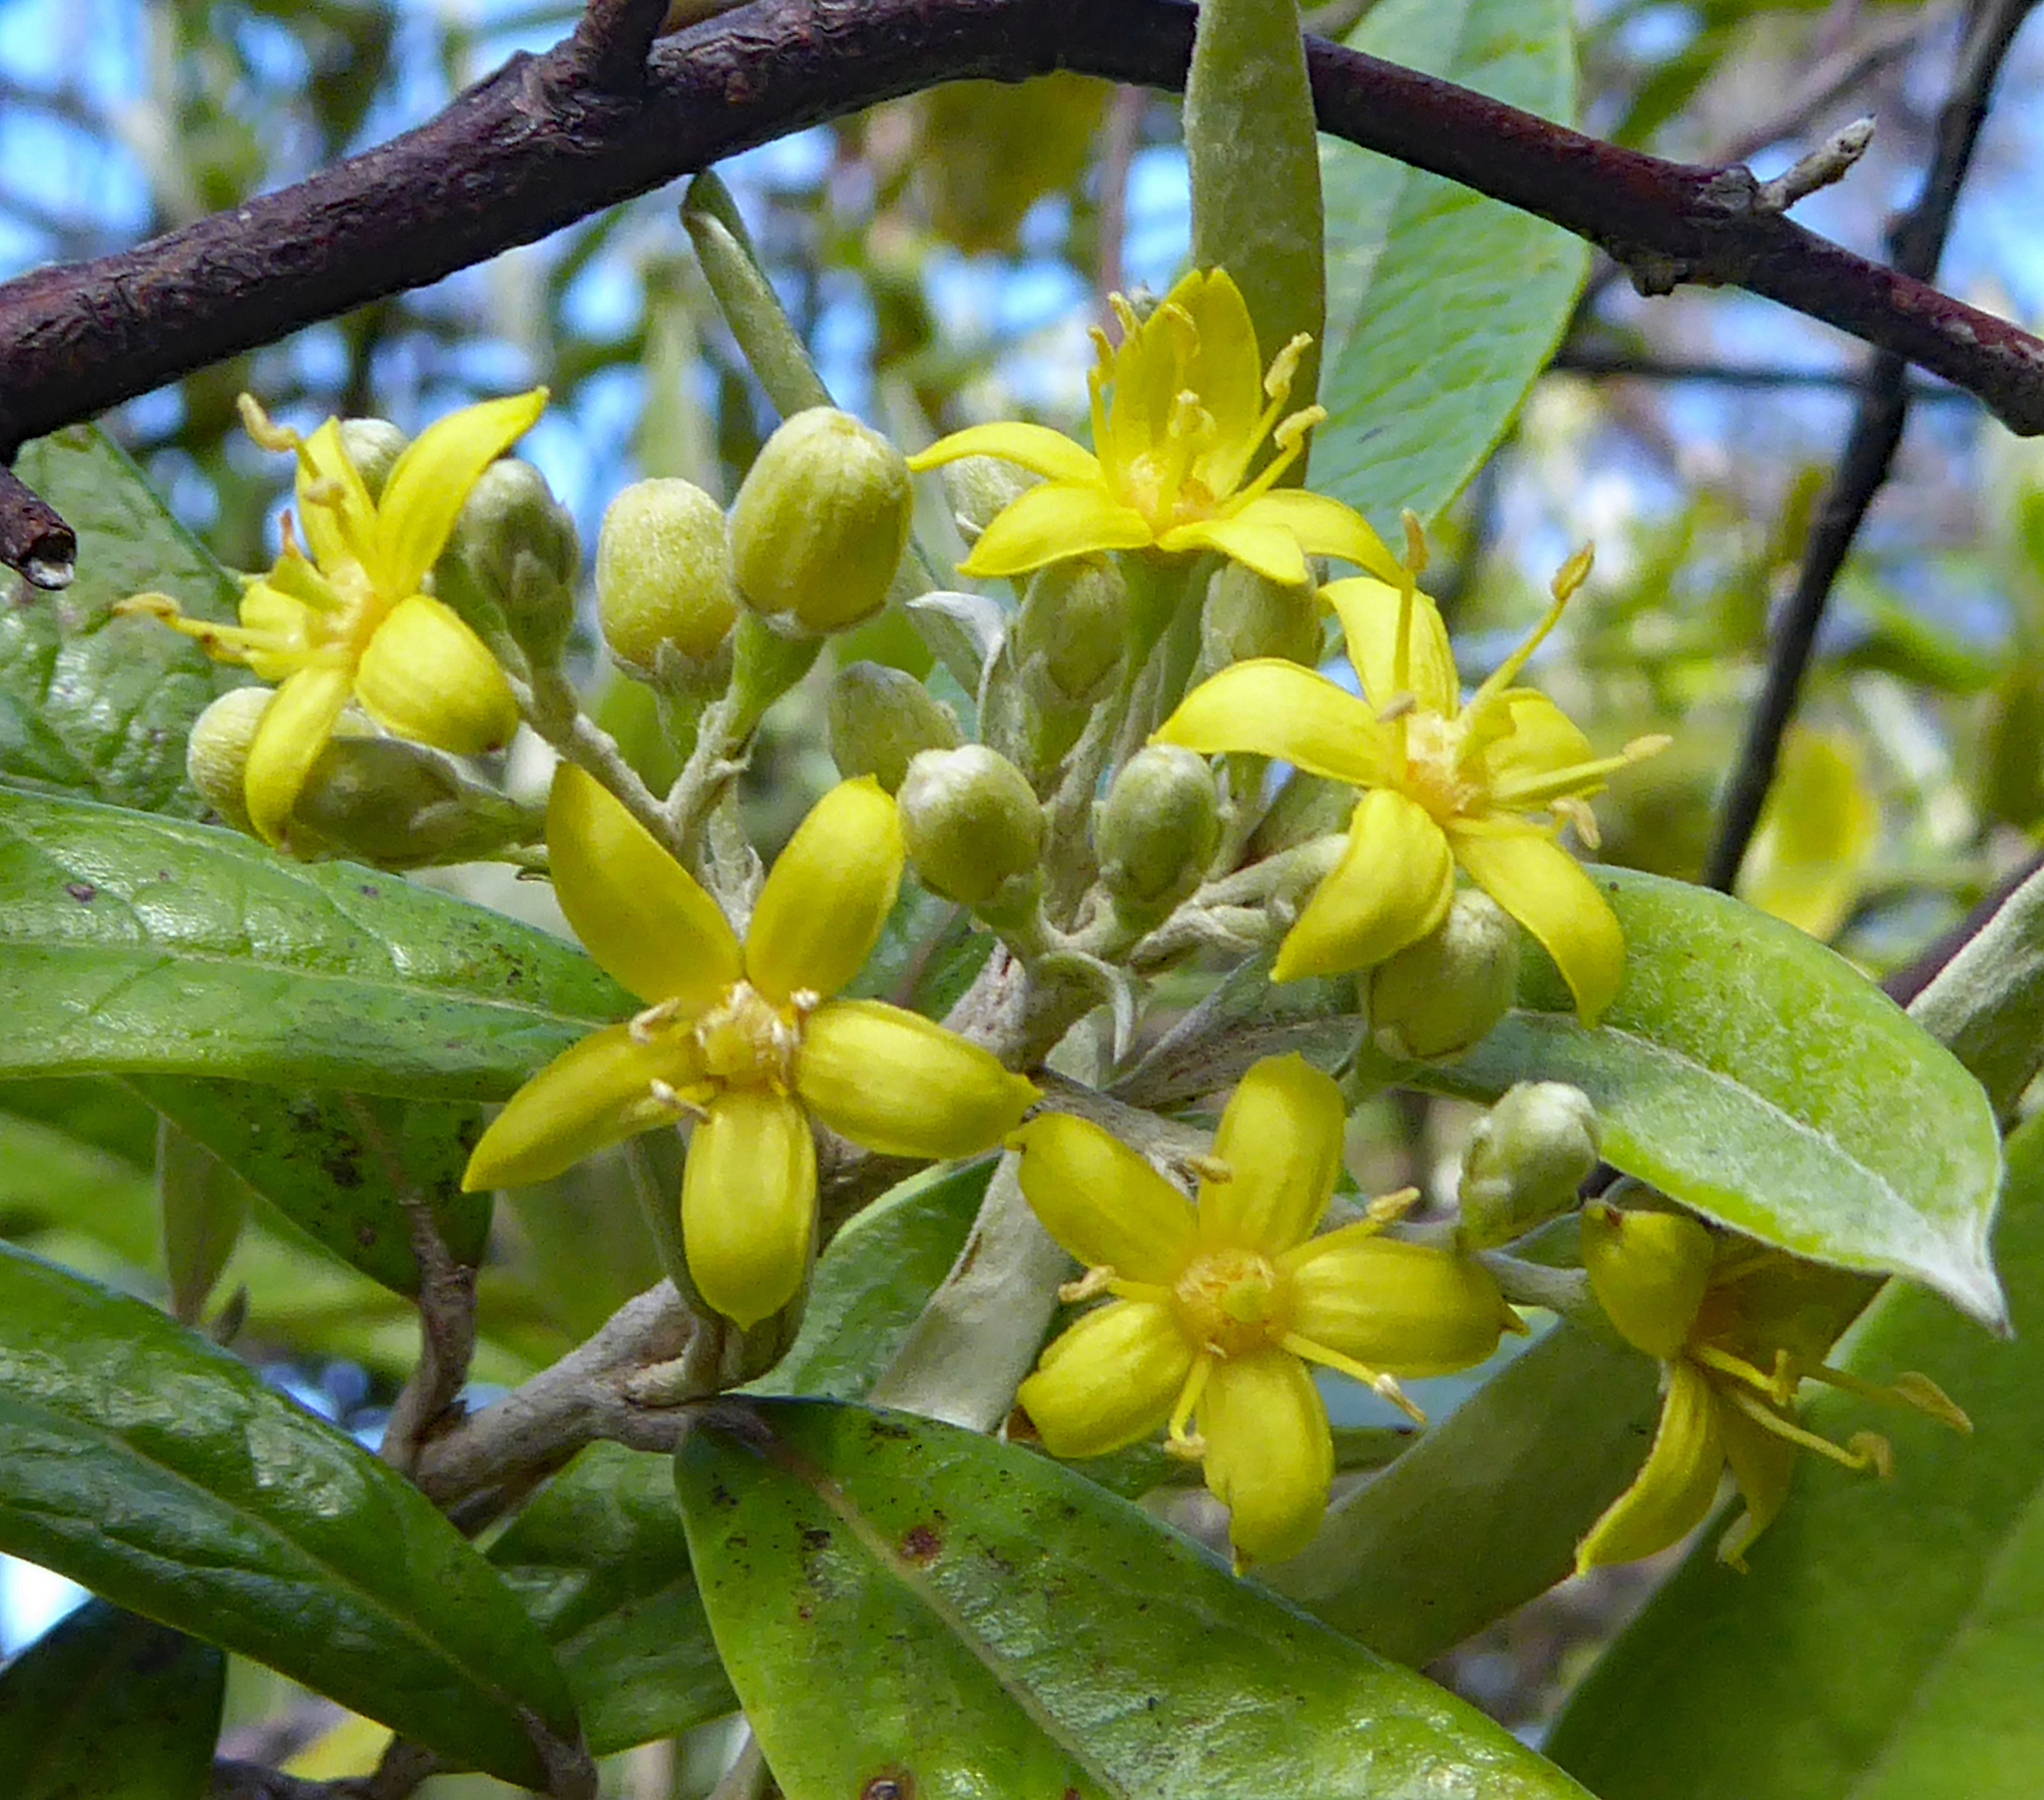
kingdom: Plantae
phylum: Tracheophyta
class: Magnoliopsida
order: Asterales
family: Argophyllaceae
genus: Corokia
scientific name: Corokia buddleioides
